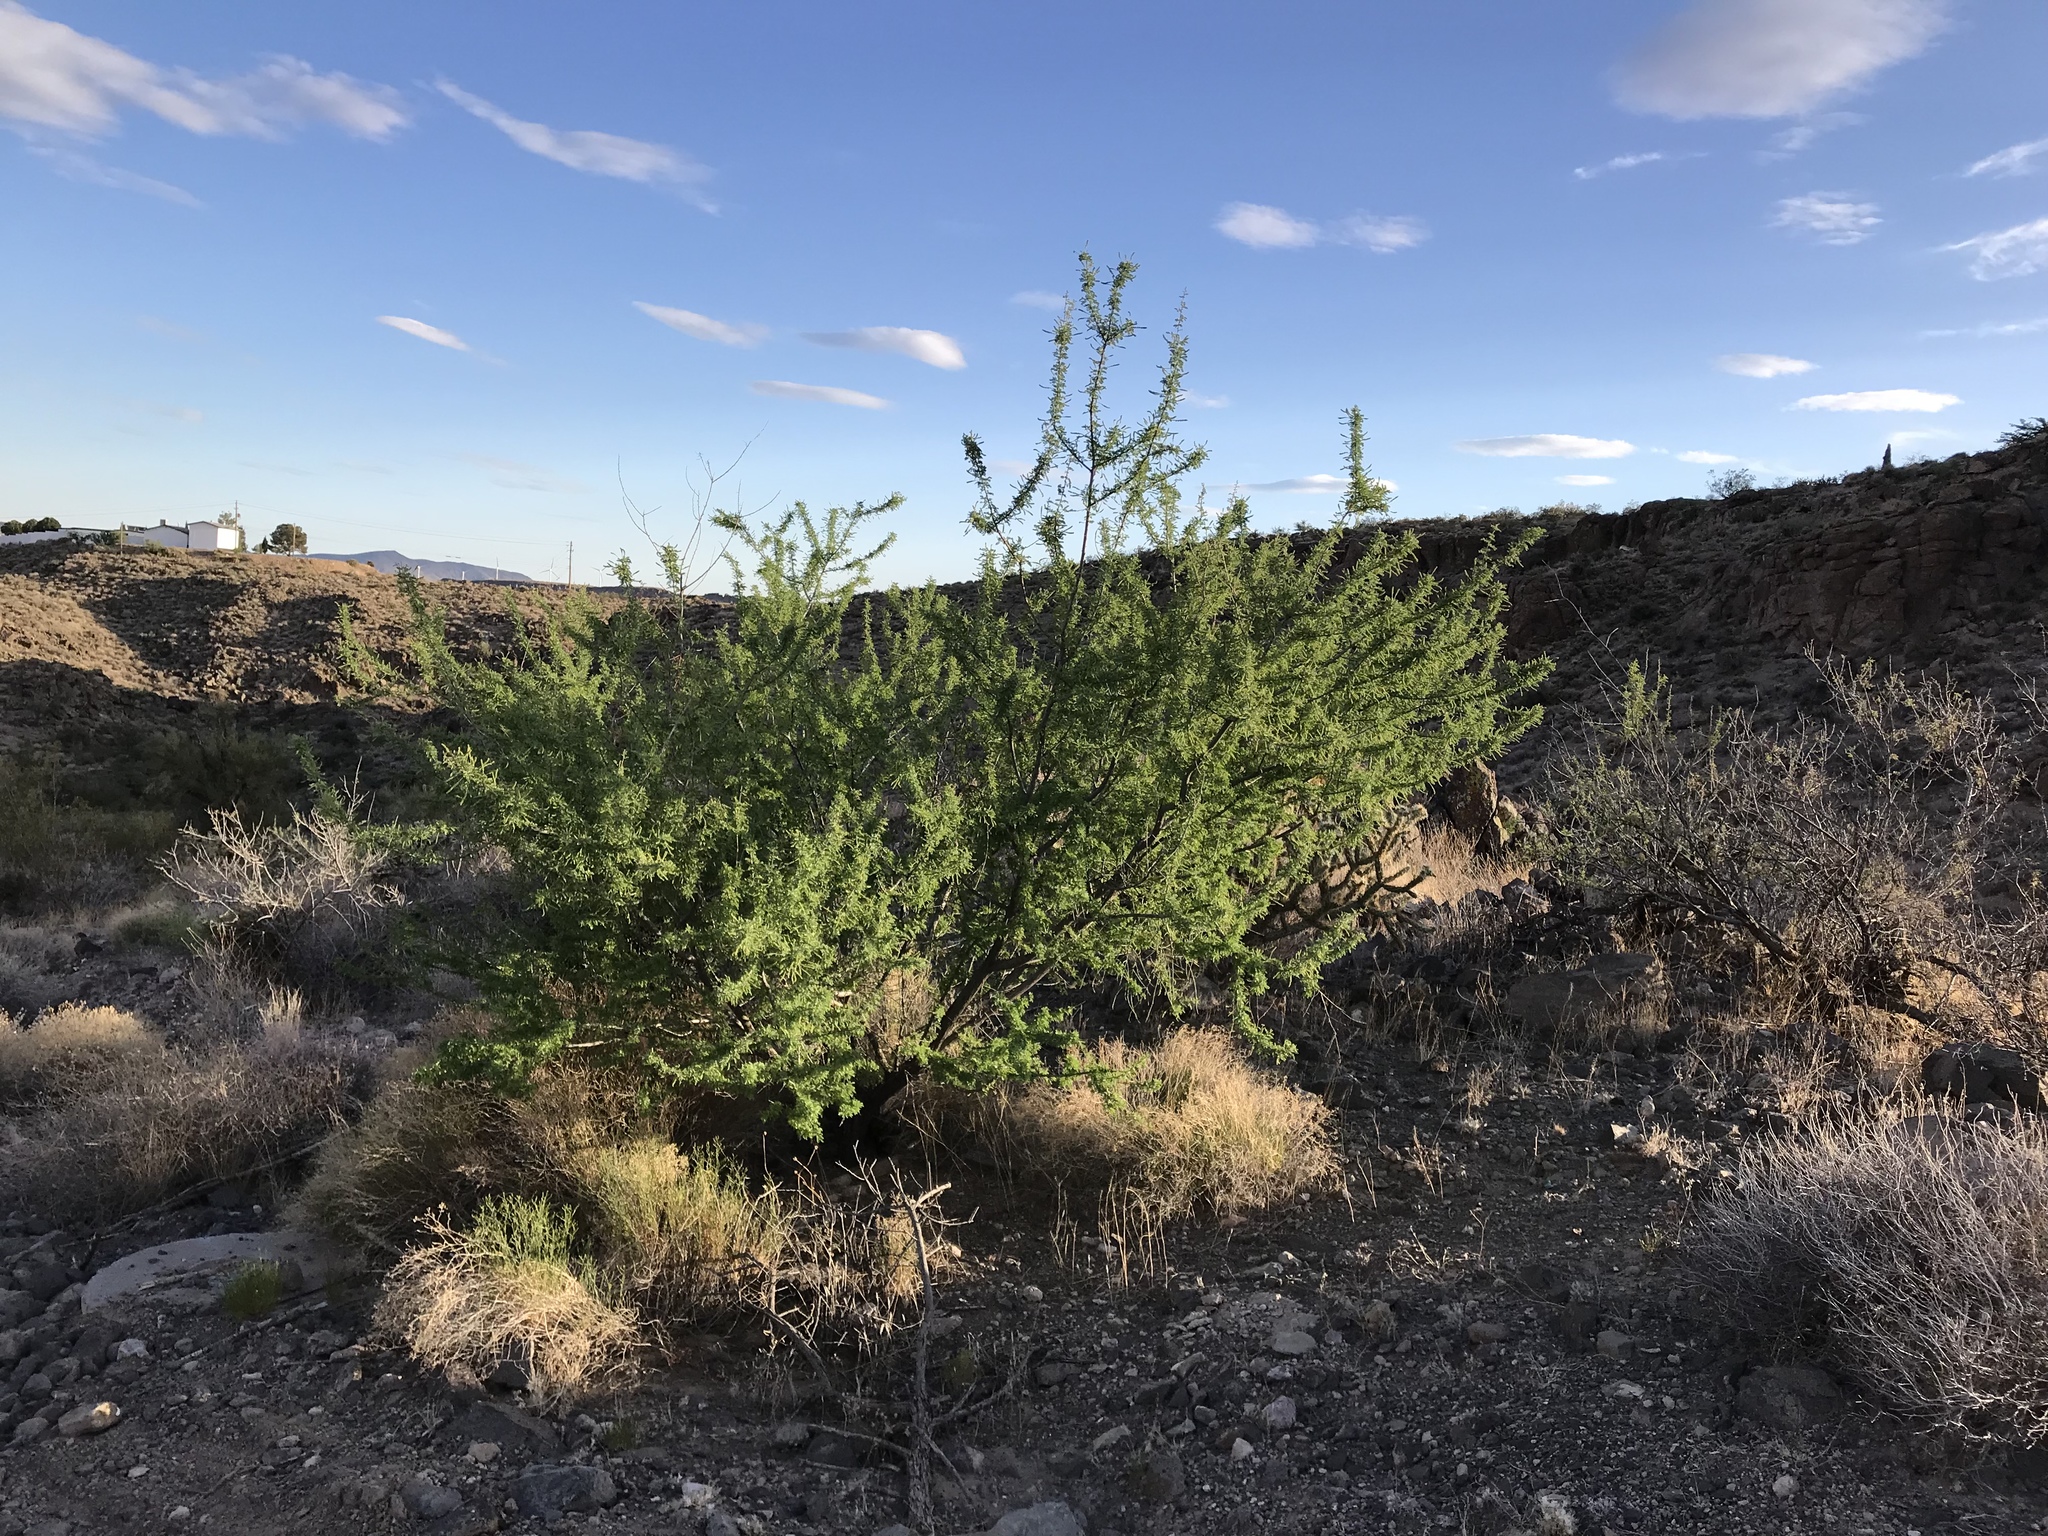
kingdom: Plantae
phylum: Tracheophyta
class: Magnoliopsida
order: Fabales
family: Fabaceae
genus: Senegalia
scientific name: Senegalia greggii
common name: Texas-mimosa
